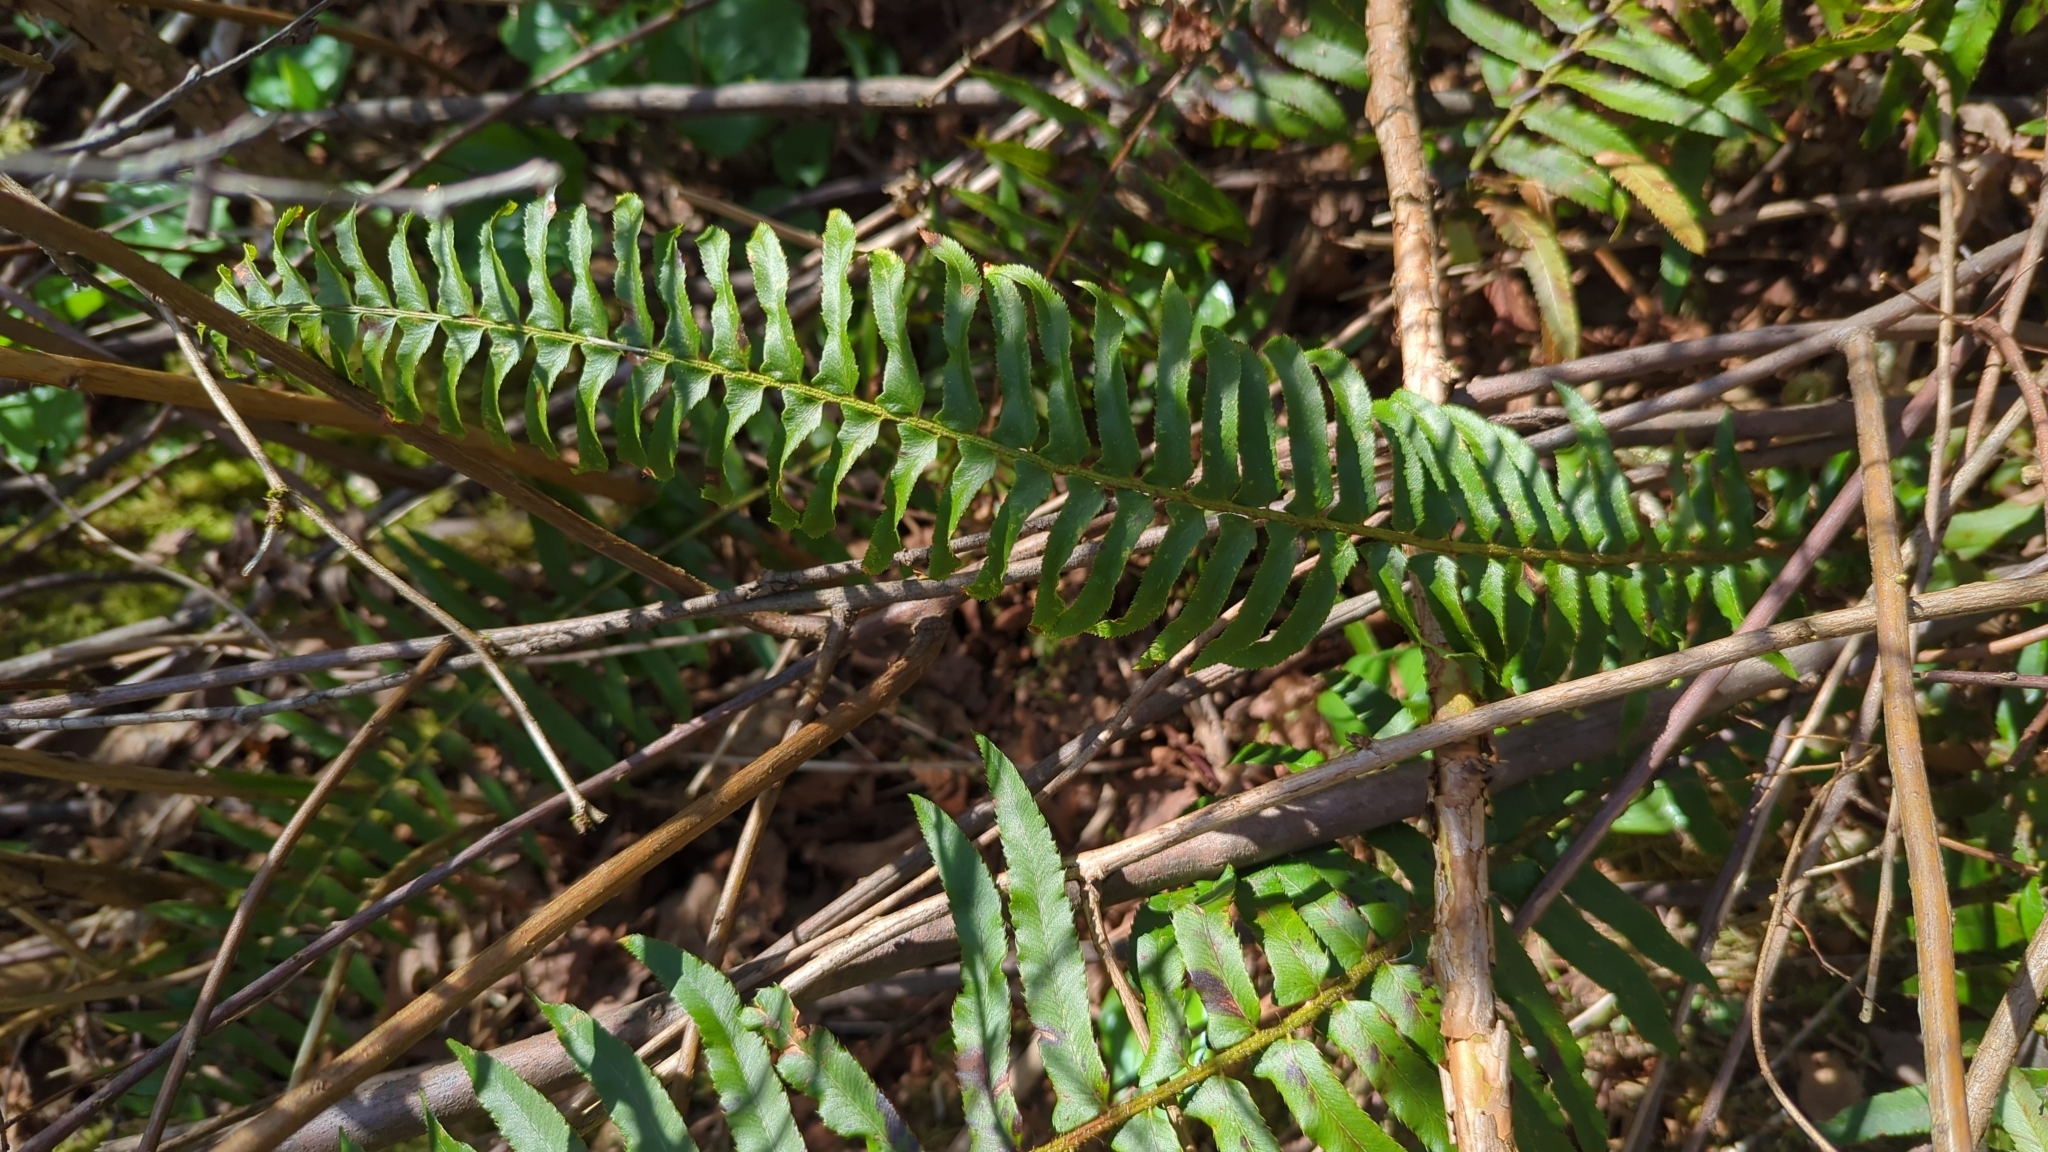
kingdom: Plantae
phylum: Tracheophyta
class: Polypodiopsida
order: Polypodiales
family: Dryopteridaceae
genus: Polystichum
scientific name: Polystichum munitum
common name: Western sword-fern
